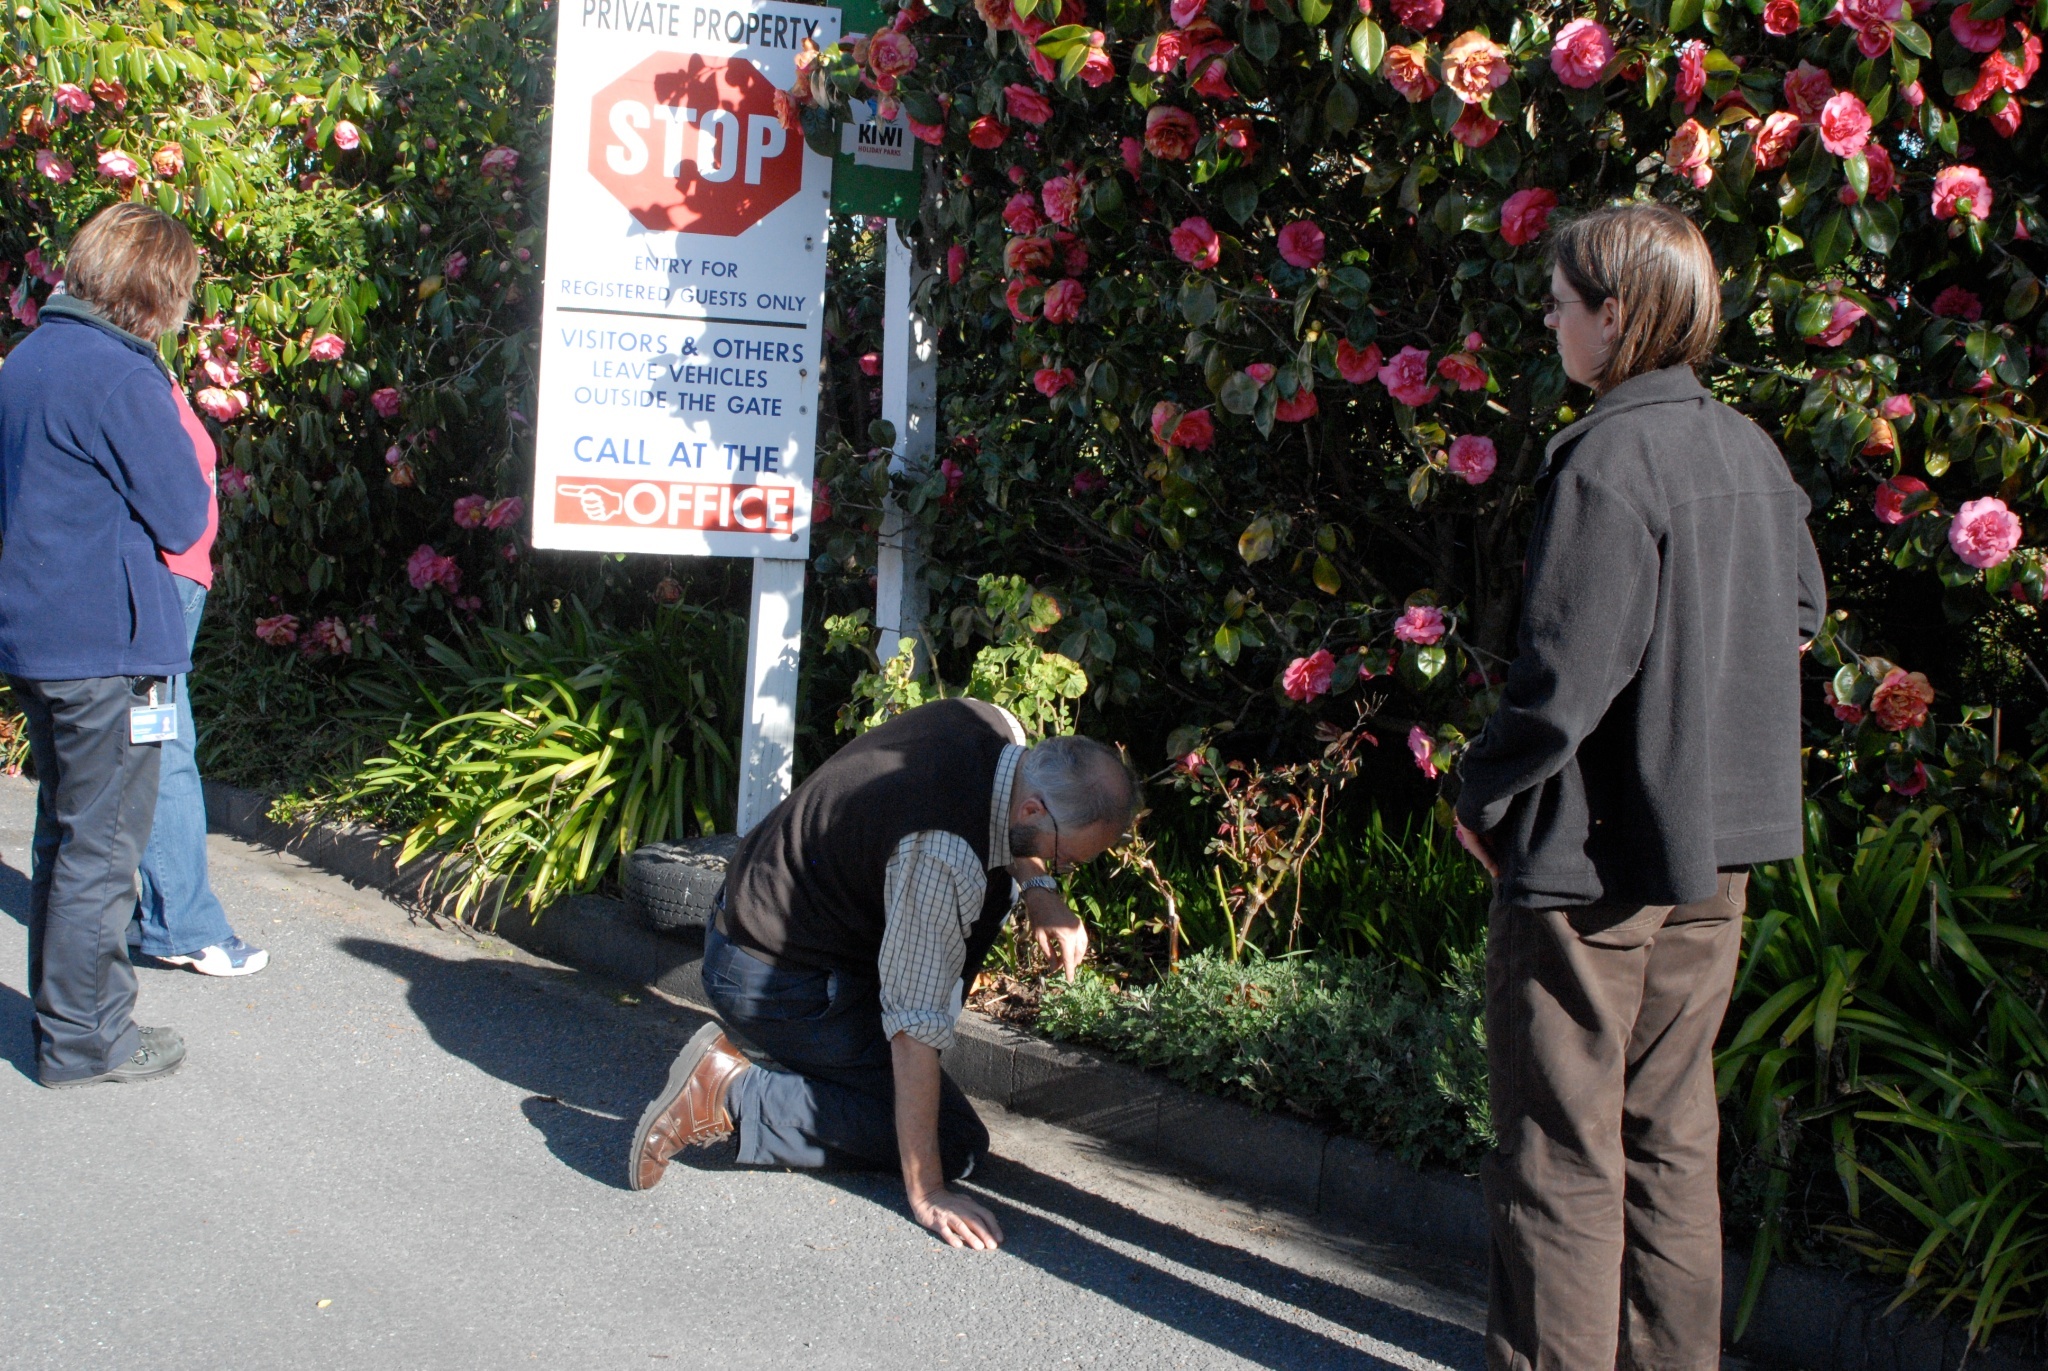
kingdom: Animalia
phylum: Arthropoda
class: Insecta
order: Hymenoptera
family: Formicidae
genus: Linepithema
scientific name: Linepithema humile
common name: Argentine ant
